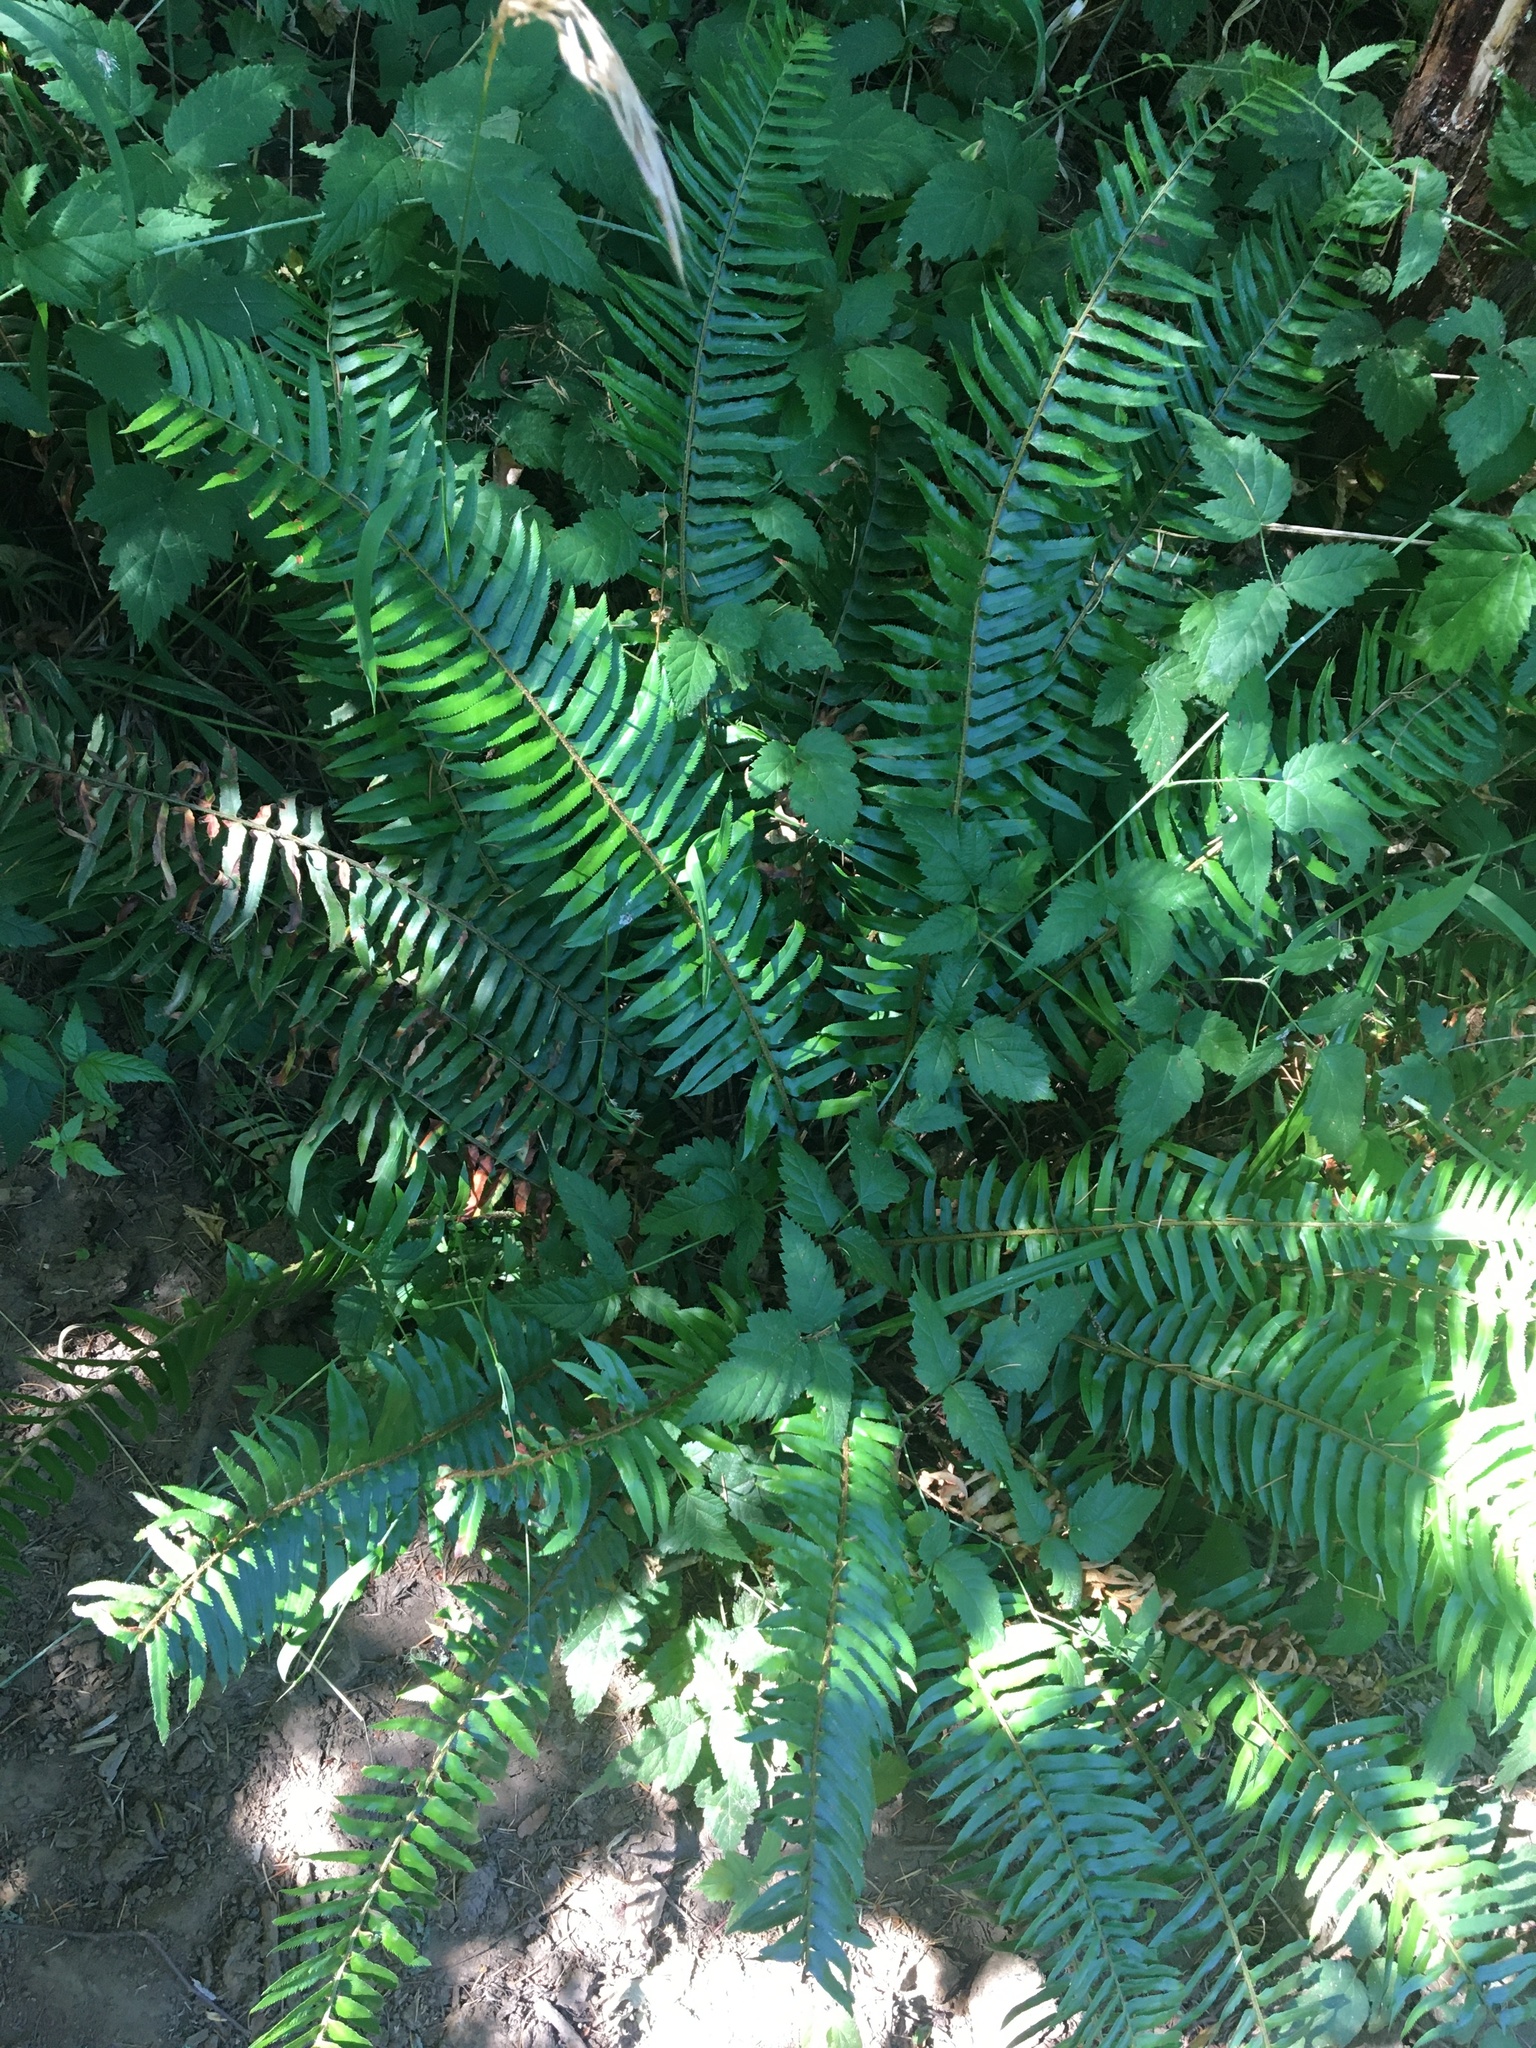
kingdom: Plantae
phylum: Tracheophyta
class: Polypodiopsida
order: Polypodiales
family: Dryopteridaceae
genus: Polystichum
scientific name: Polystichum munitum
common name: Western sword-fern
